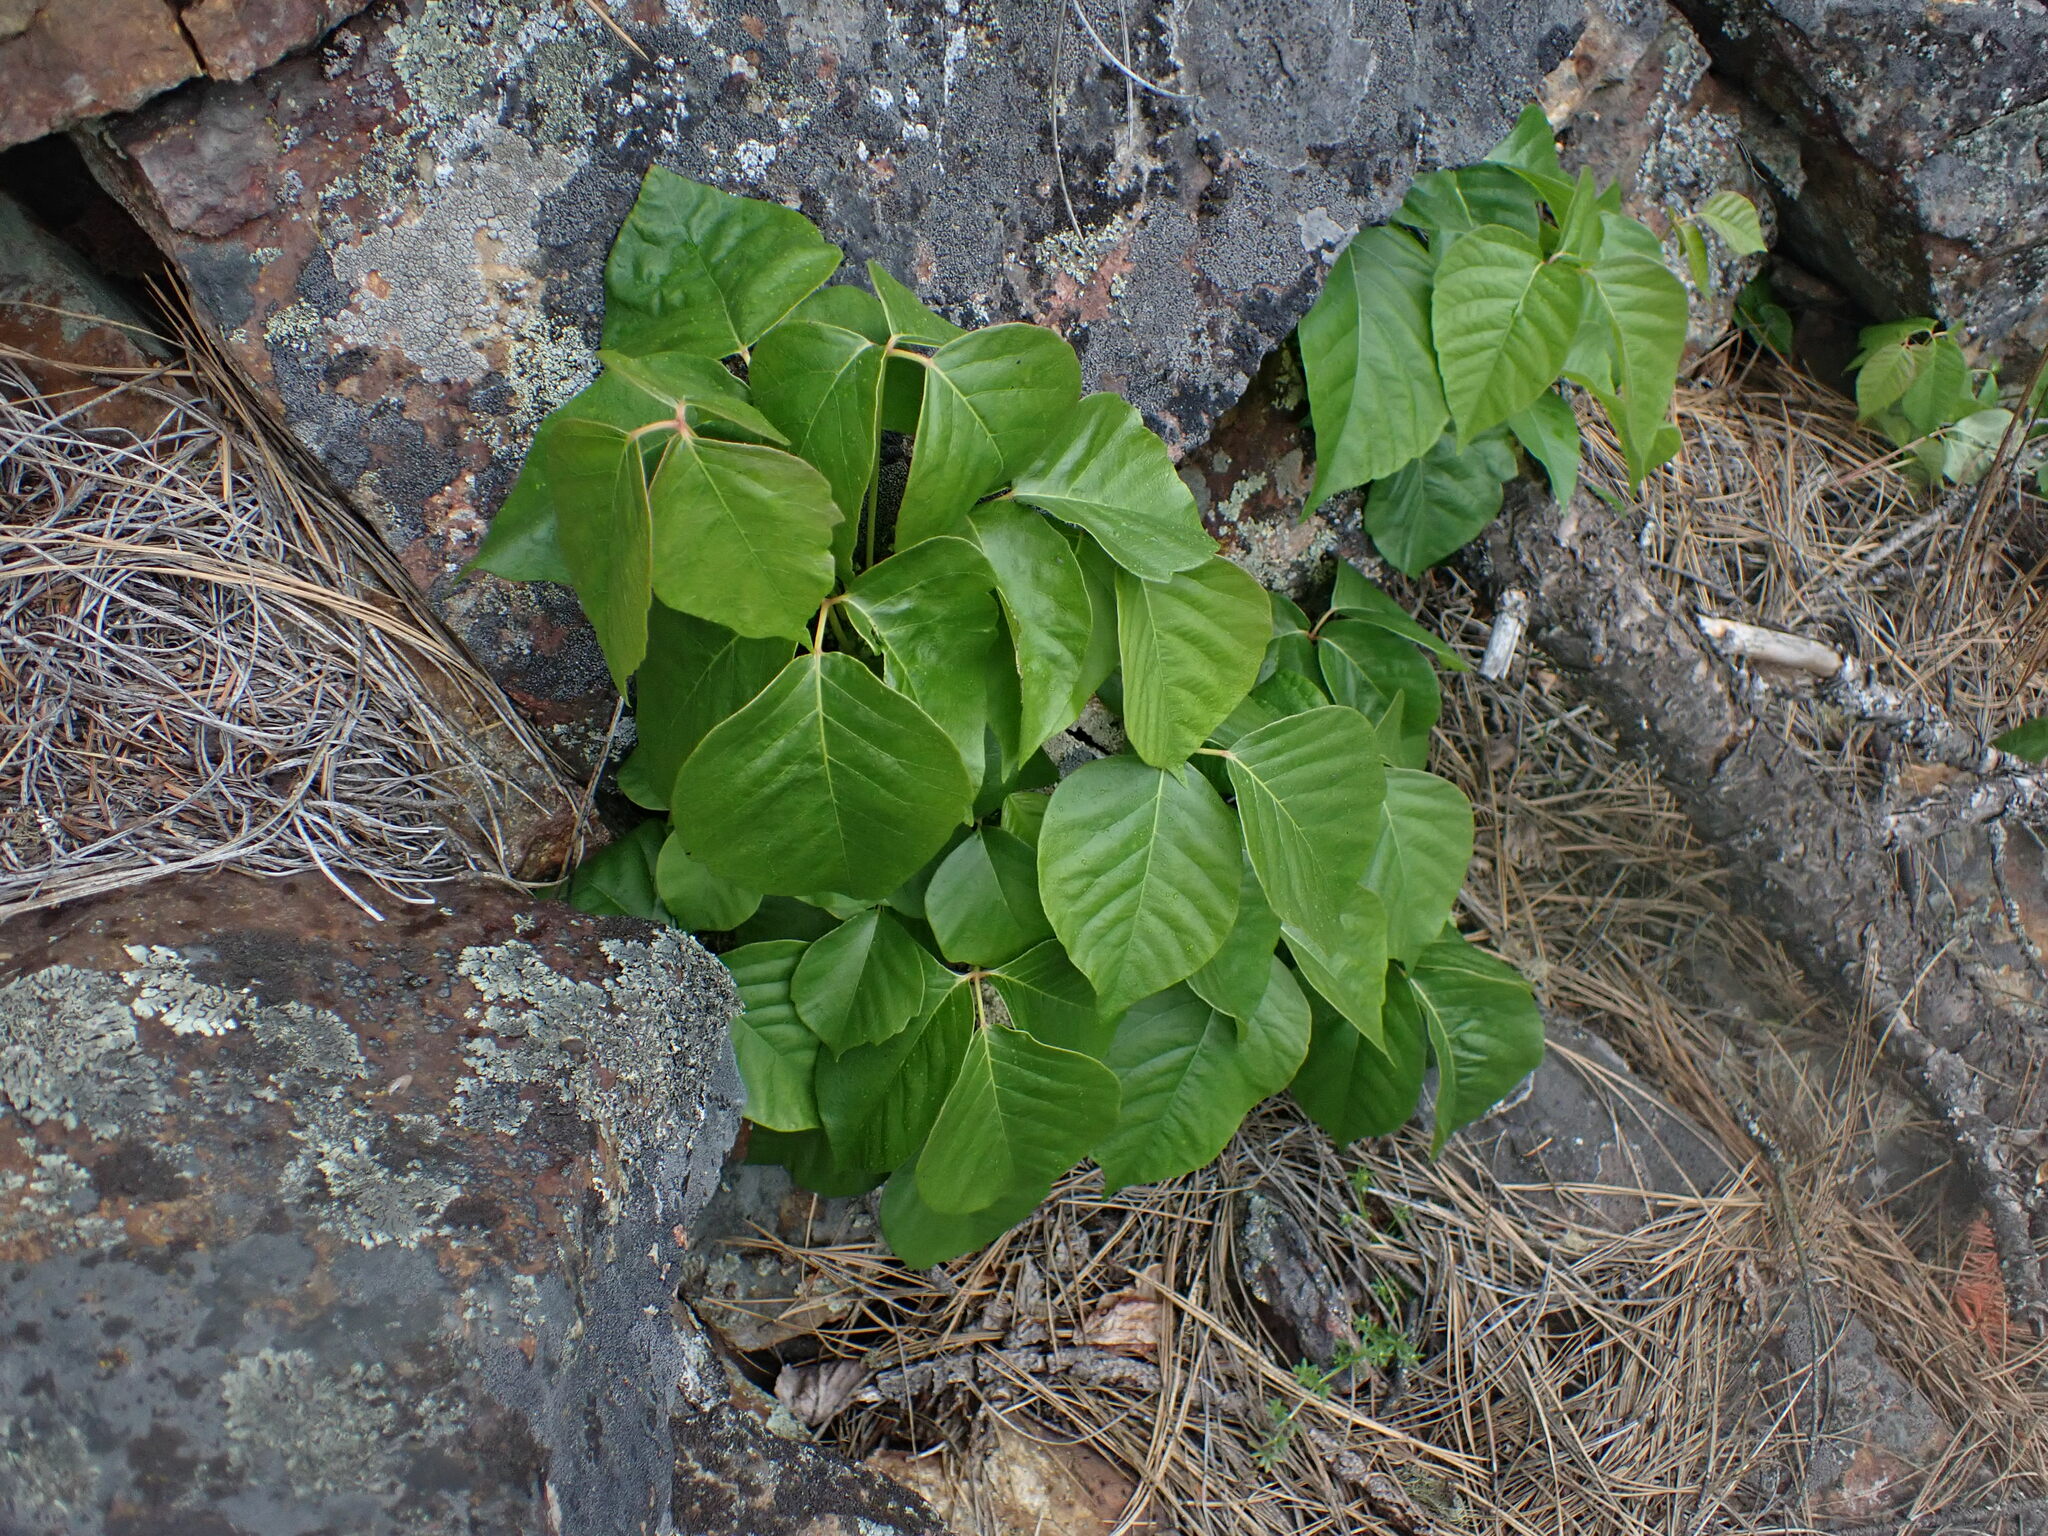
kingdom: Plantae
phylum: Tracheophyta
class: Magnoliopsida
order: Sapindales
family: Anacardiaceae
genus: Toxicodendron
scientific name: Toxicodendron rydbergii
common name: Rydberg's poison-ivy
